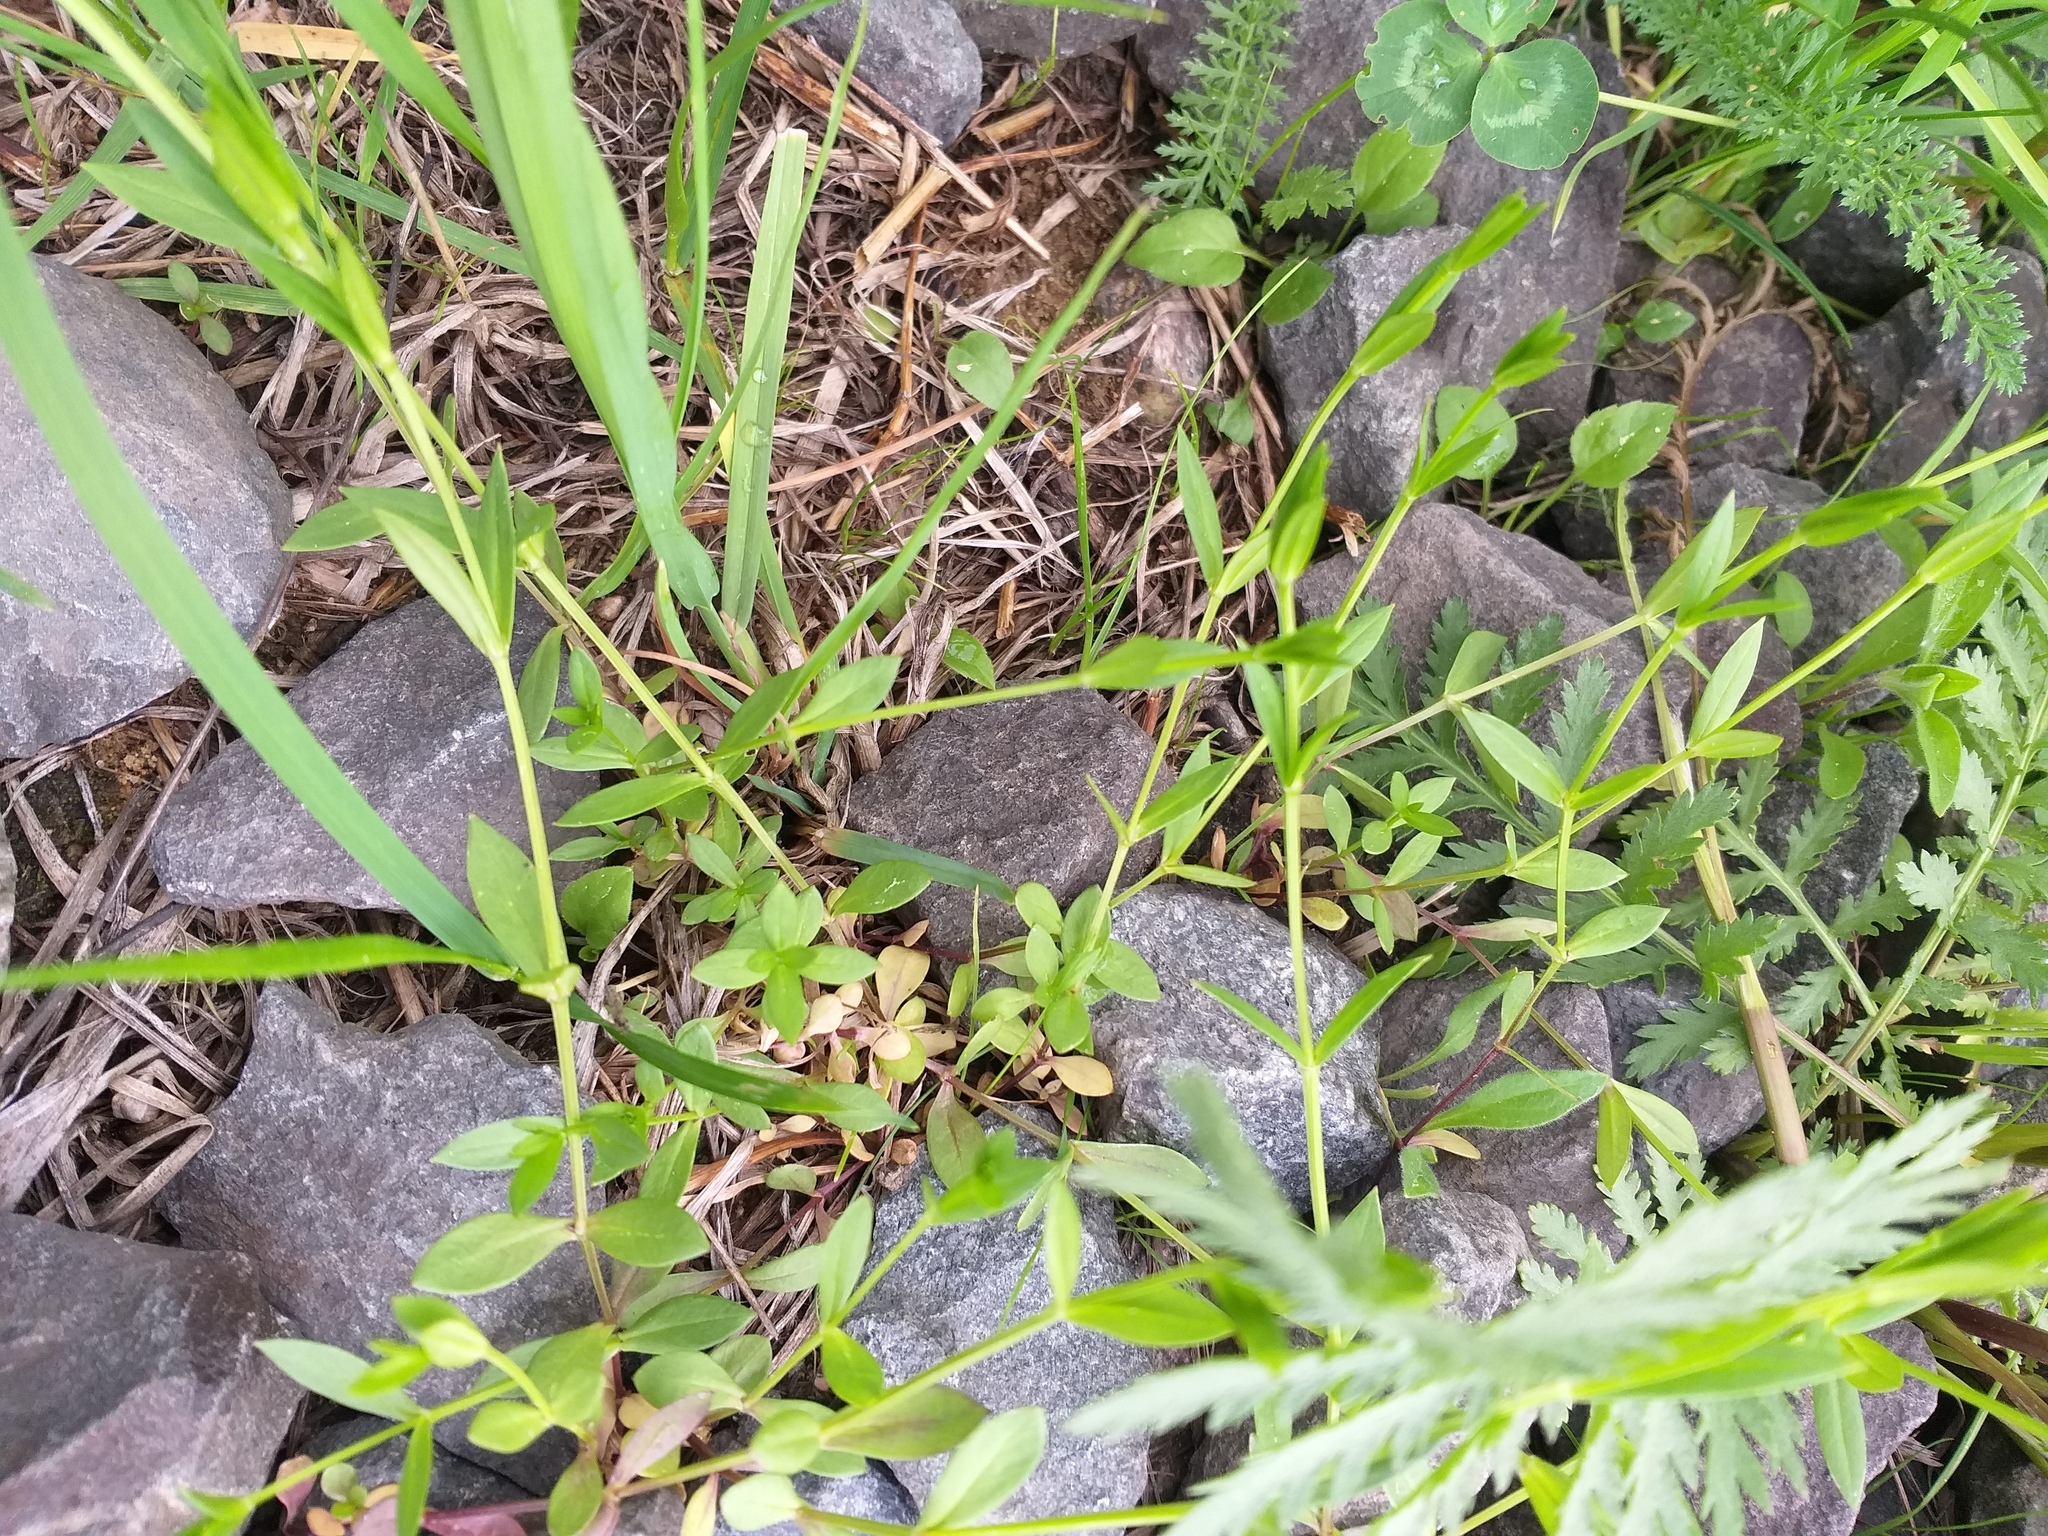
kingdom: Plantae
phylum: Tracheophyta
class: Magnoliopsida
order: Caryophyllales
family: Caryophyllaceae
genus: Stellaria
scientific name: Stellaria graminea
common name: Grass-like starwort
